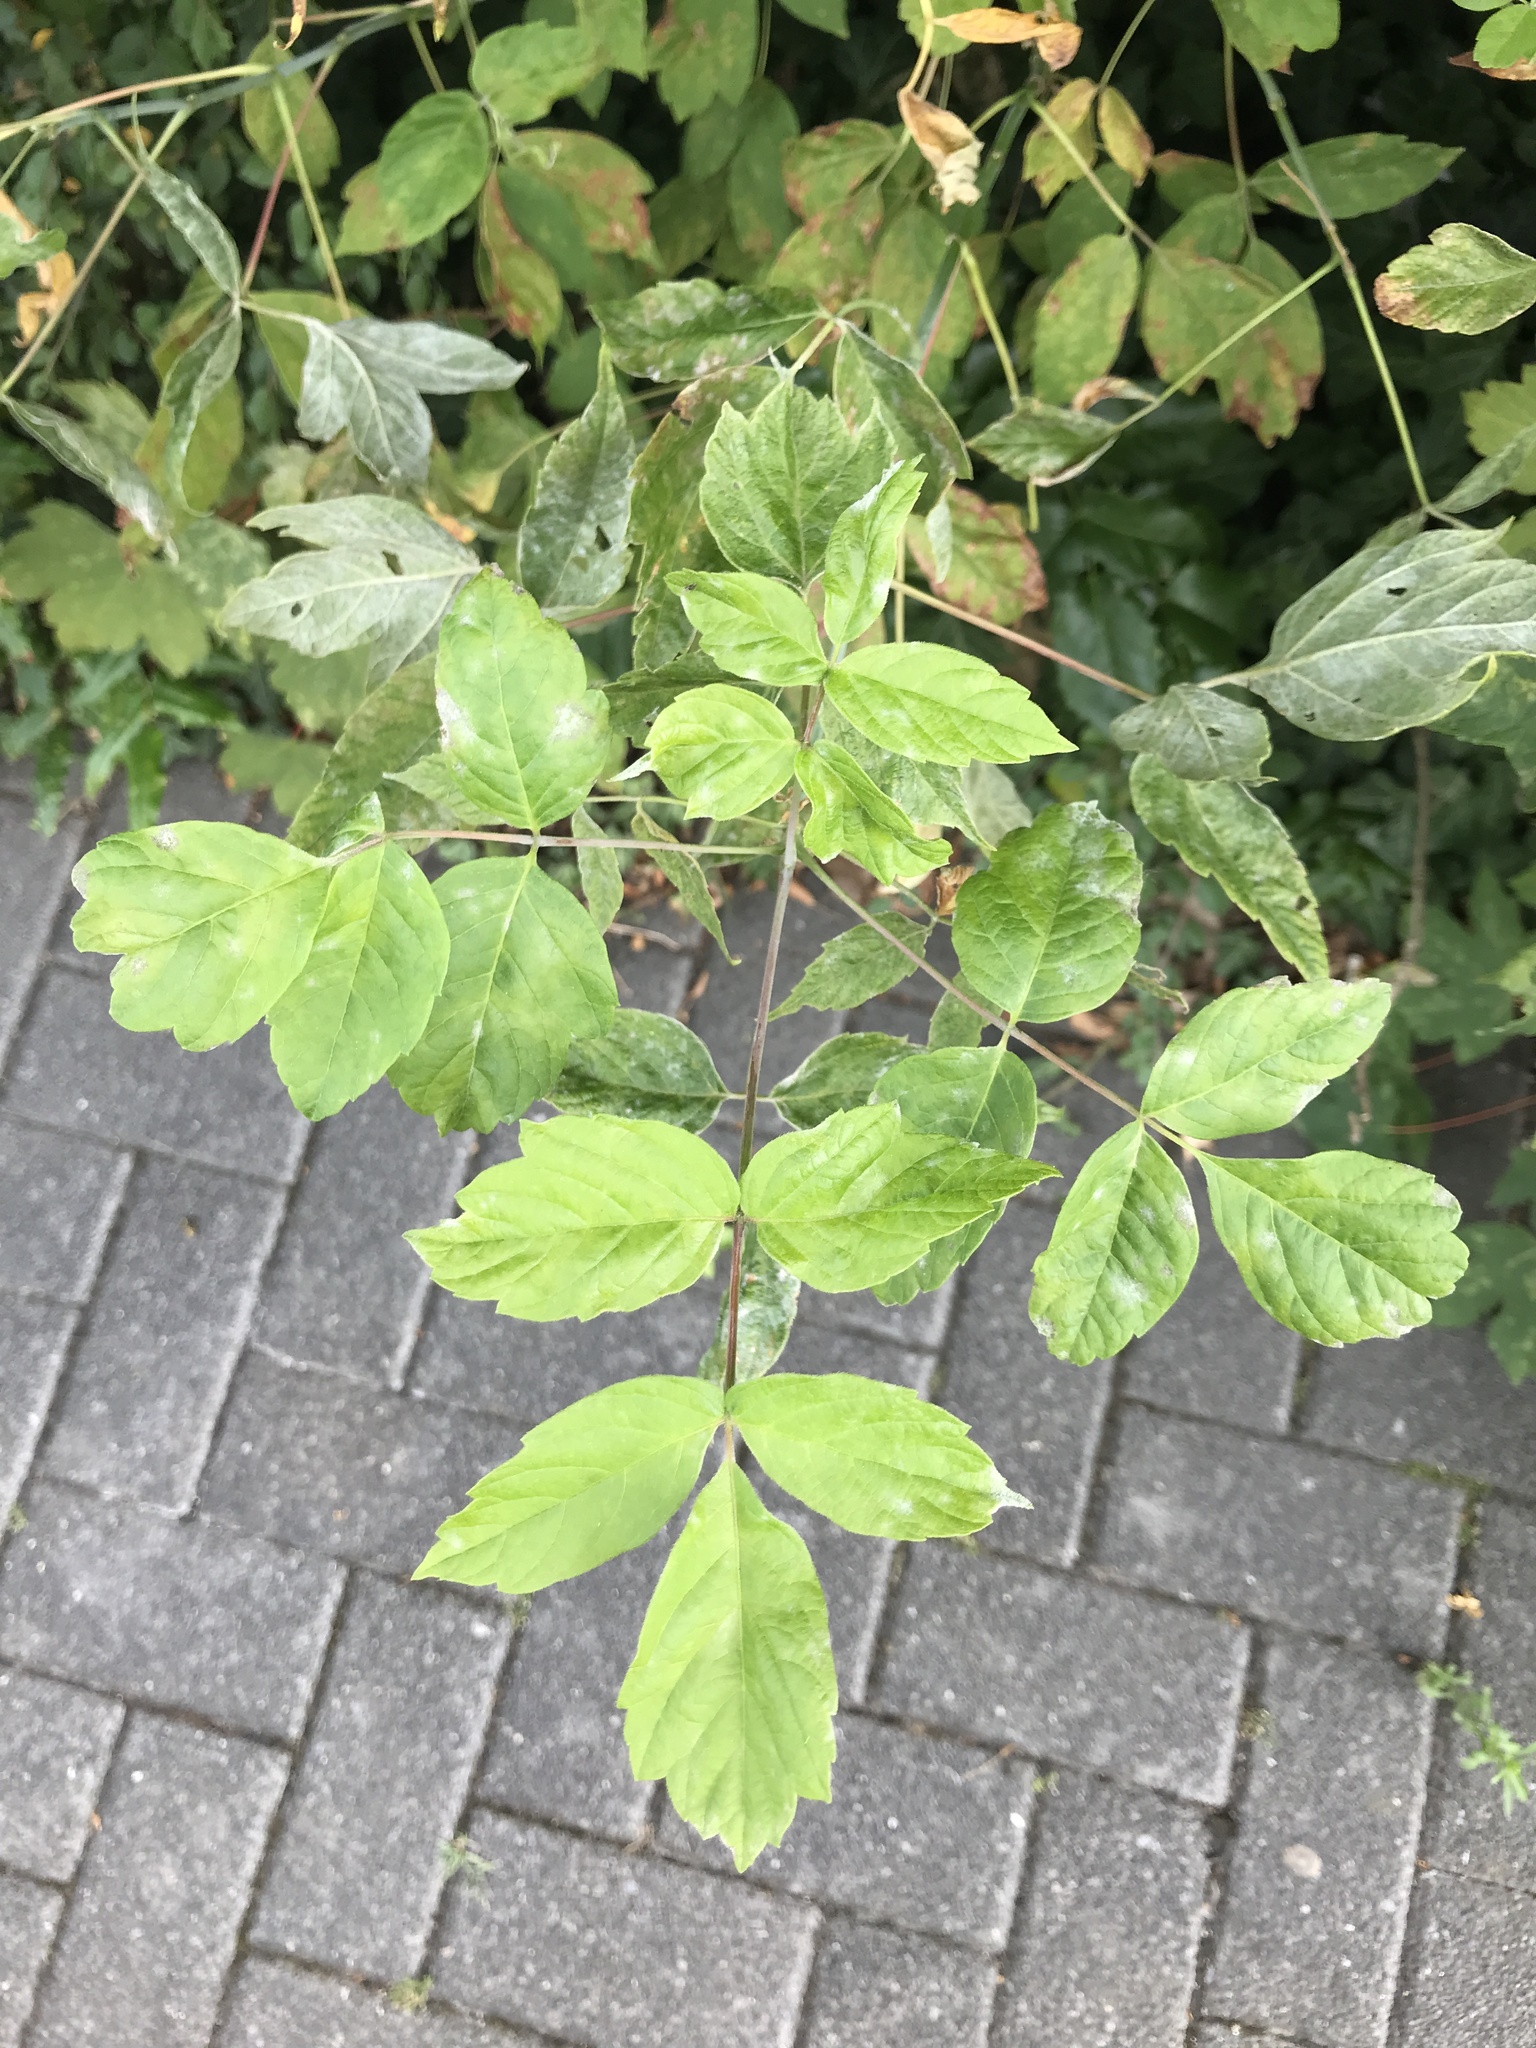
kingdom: Plantae
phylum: Tracheophyta
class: Magnoliopsida
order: Sapindales
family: Sapindaceae
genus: Acer
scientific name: Acer negundo
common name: Ashleaf maple
